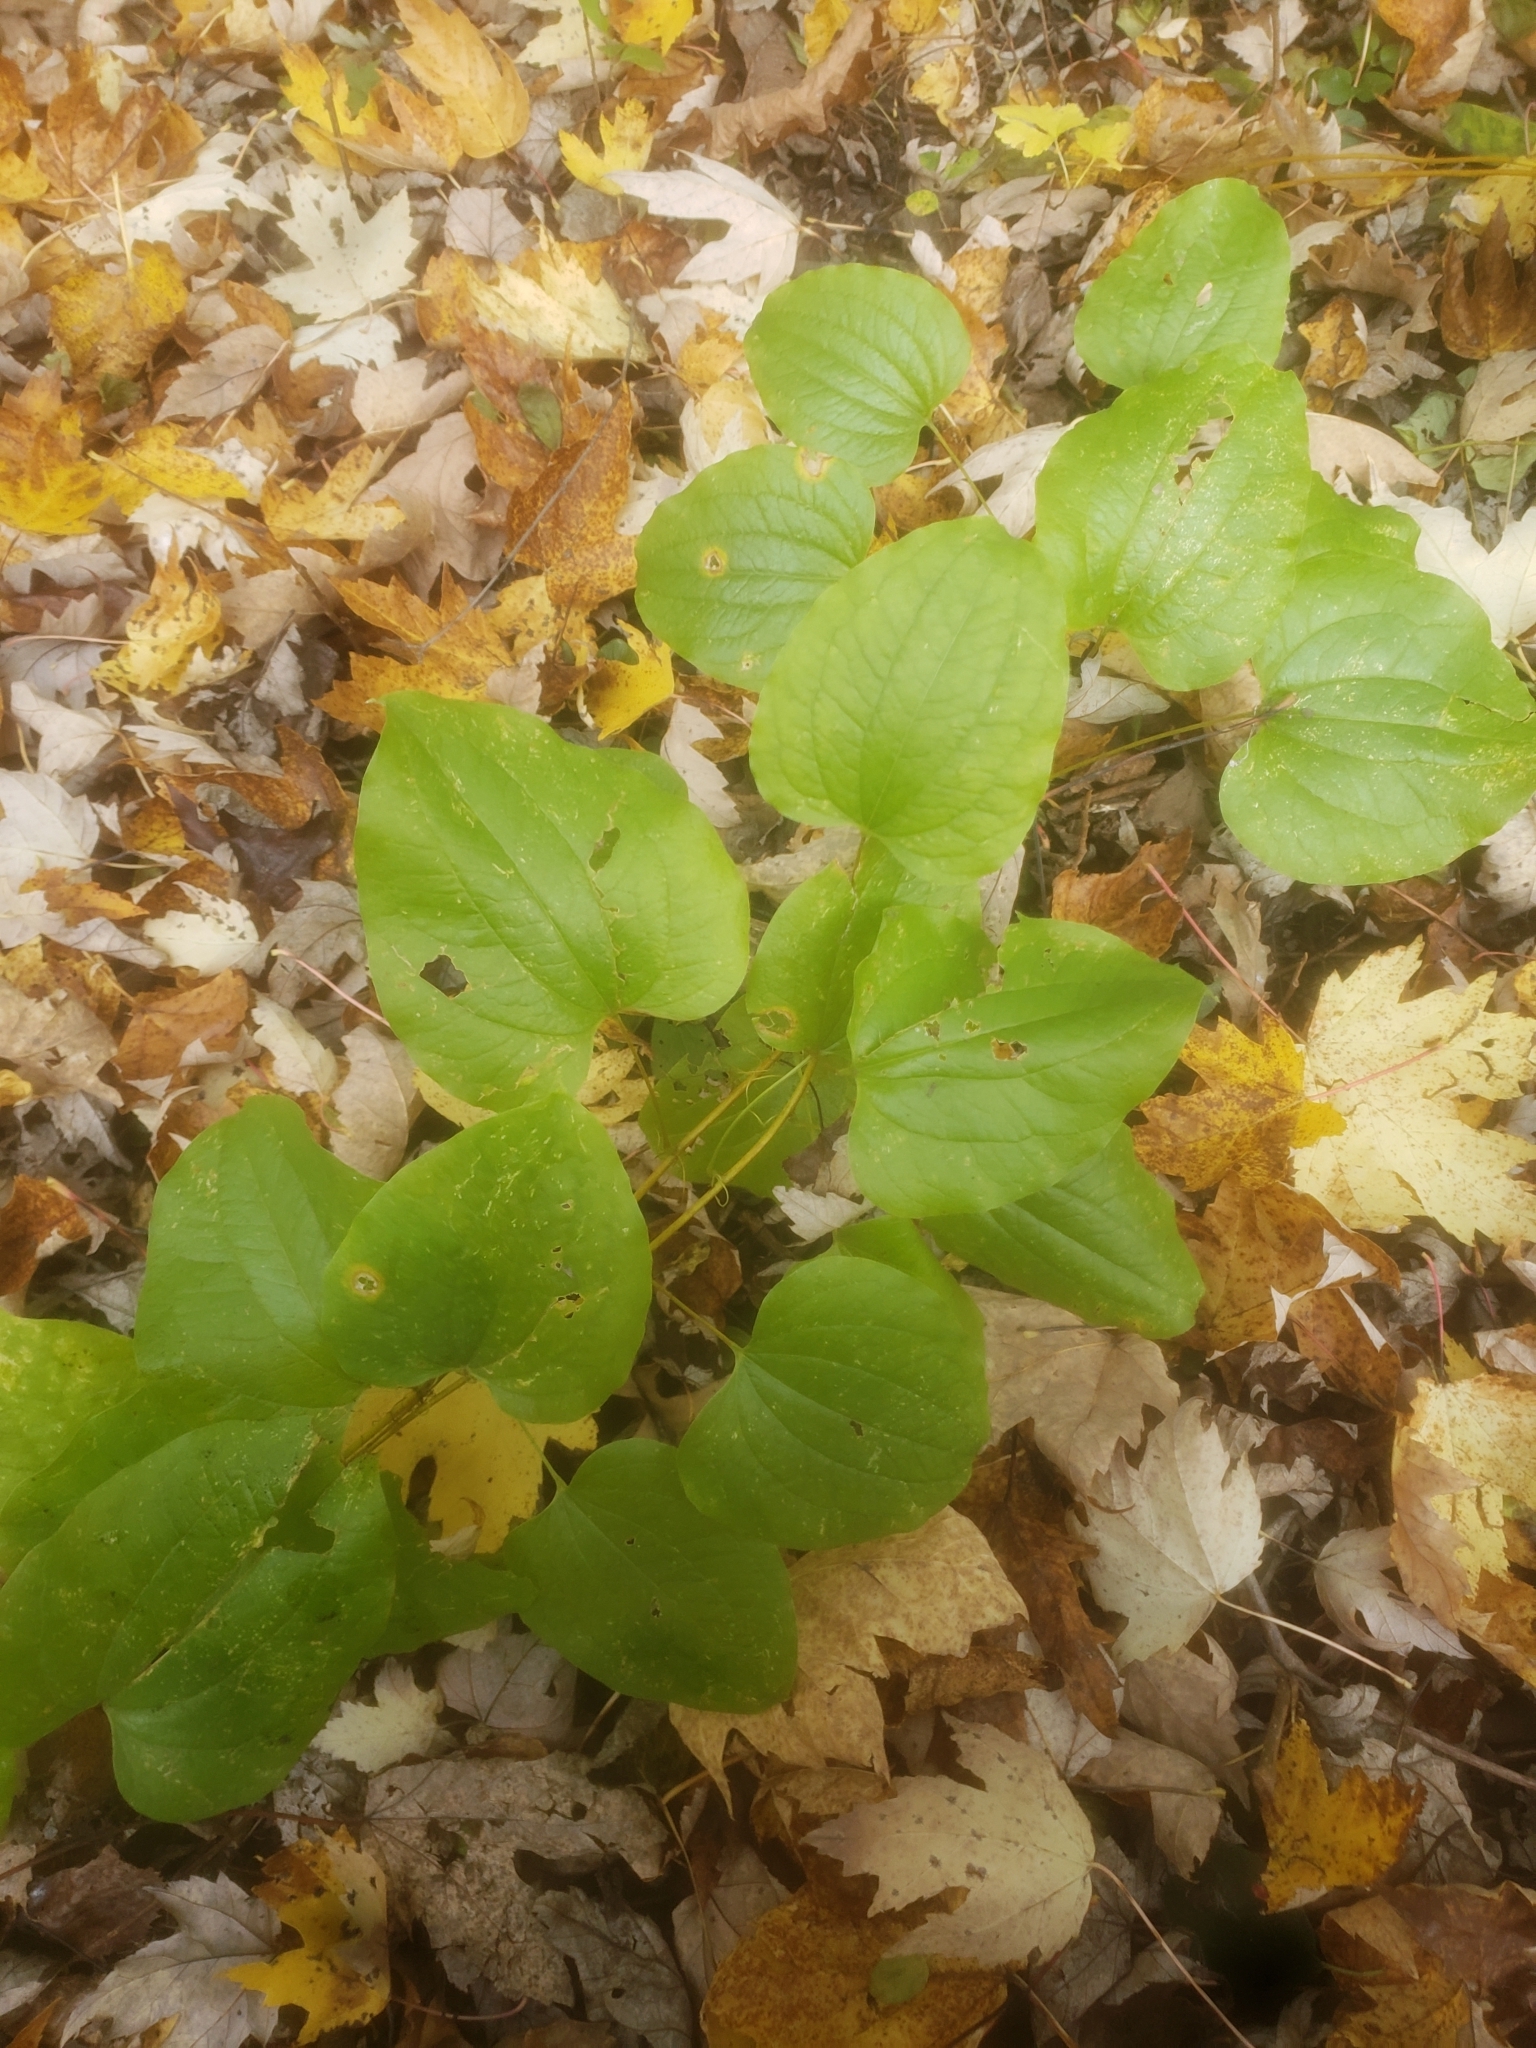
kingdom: Plantae
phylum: Tracheophyta
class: Liliopsida
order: Liliales
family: Smilacaceae
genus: Smilax
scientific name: Smilax herbacea
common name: Jacob's-ladder
